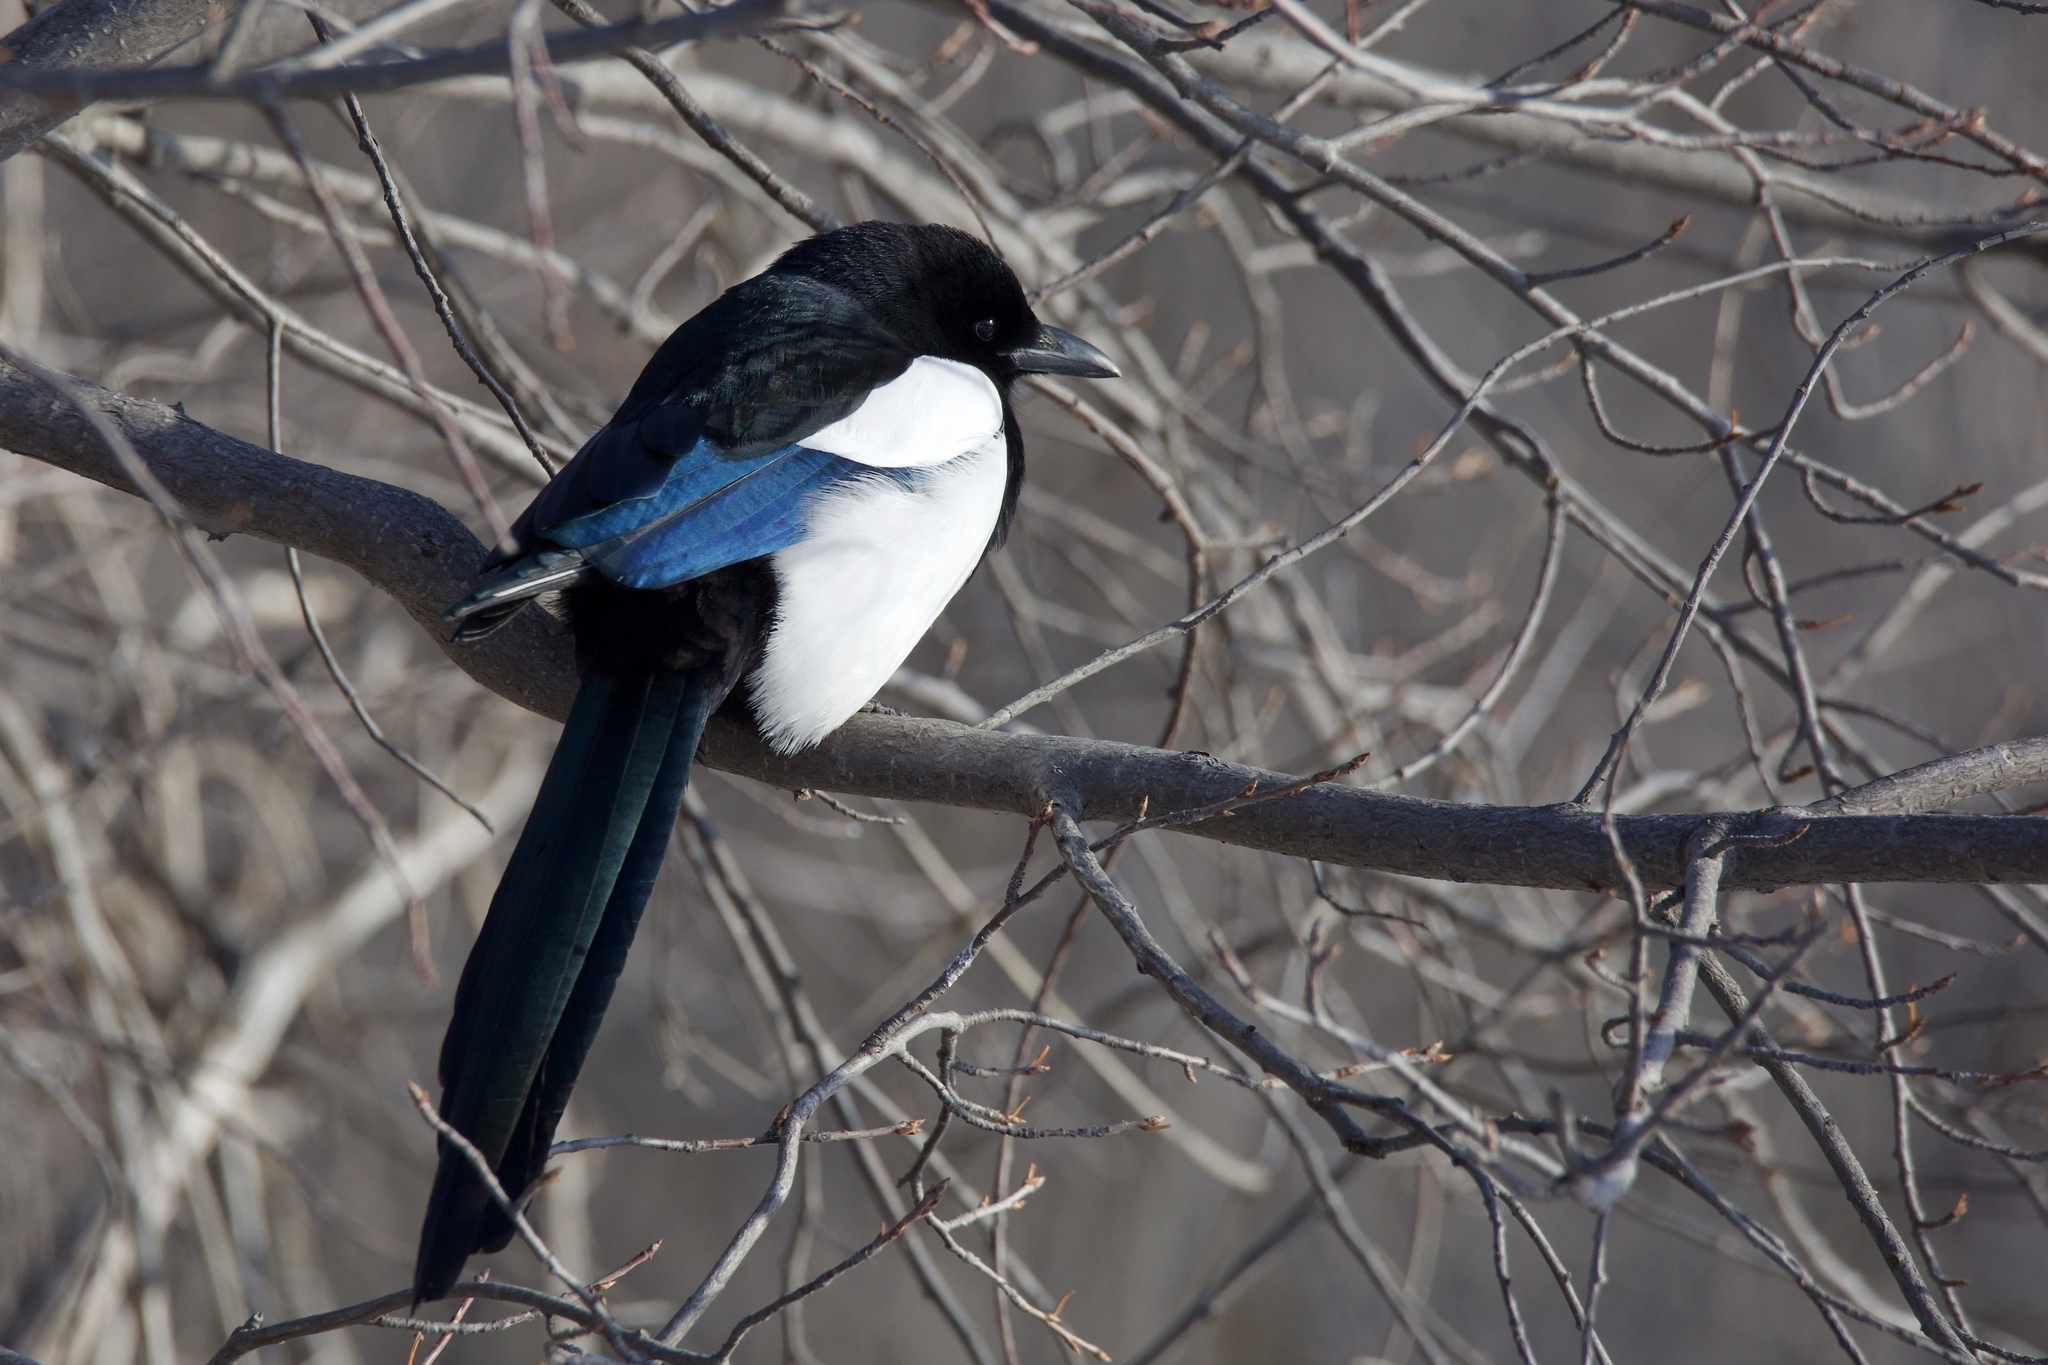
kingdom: Animalia
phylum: Chordata
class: Aves
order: Passeriformes
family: Corvidae
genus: Pica
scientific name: Pica hudsonia
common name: Black-billed magpie
